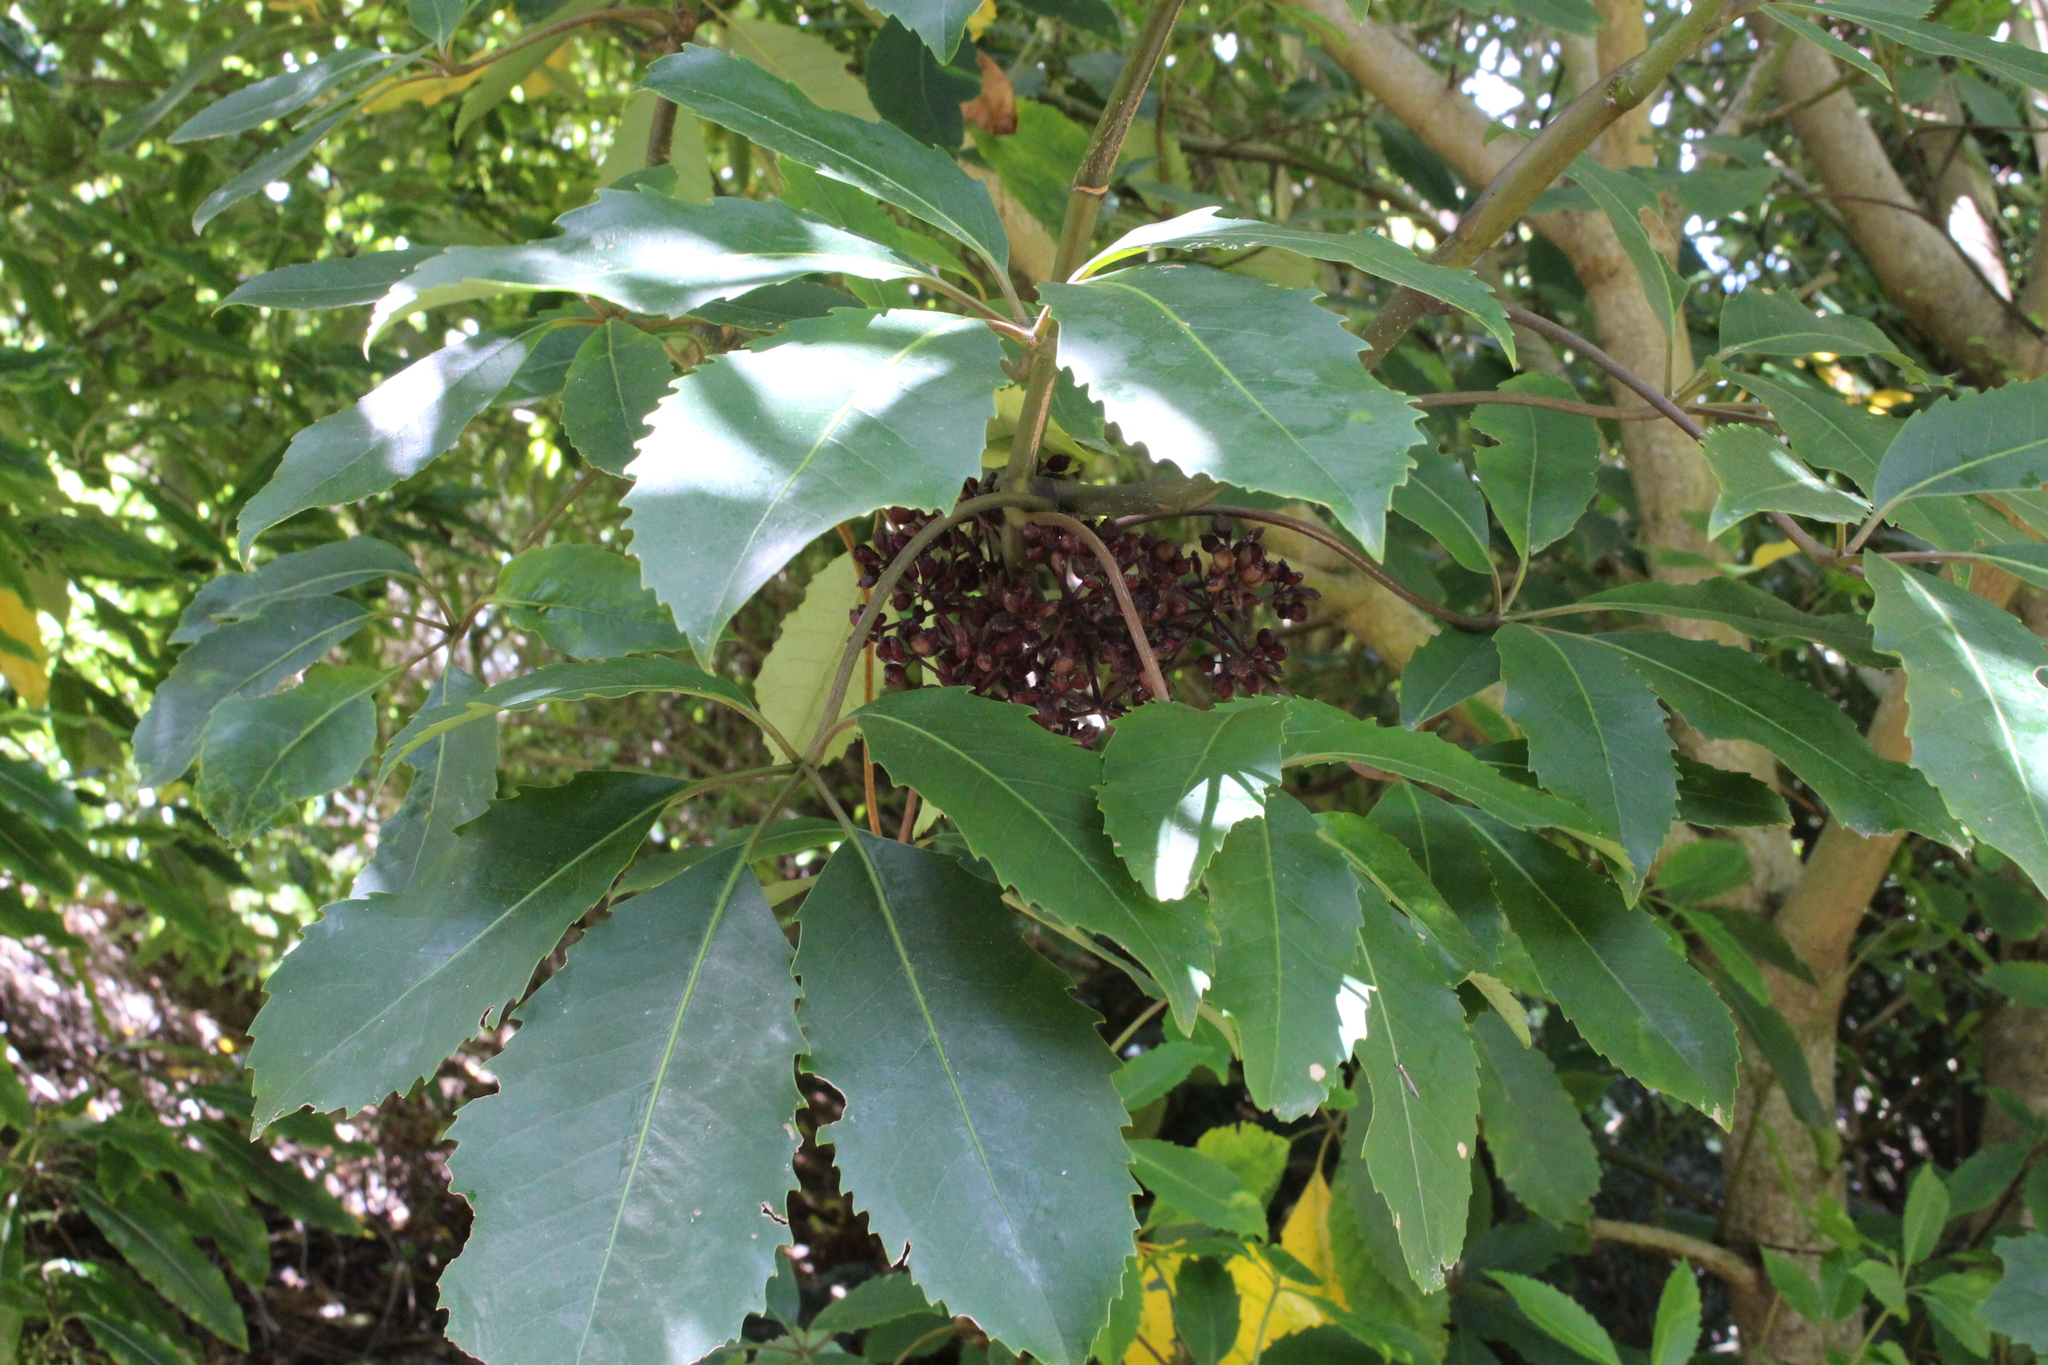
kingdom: Plantae
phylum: Tracheophyta
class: Magnoliopsida
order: Apiales
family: Araliaceae
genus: Neopanax
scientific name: Neopanax arboreus
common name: Five-fingers
